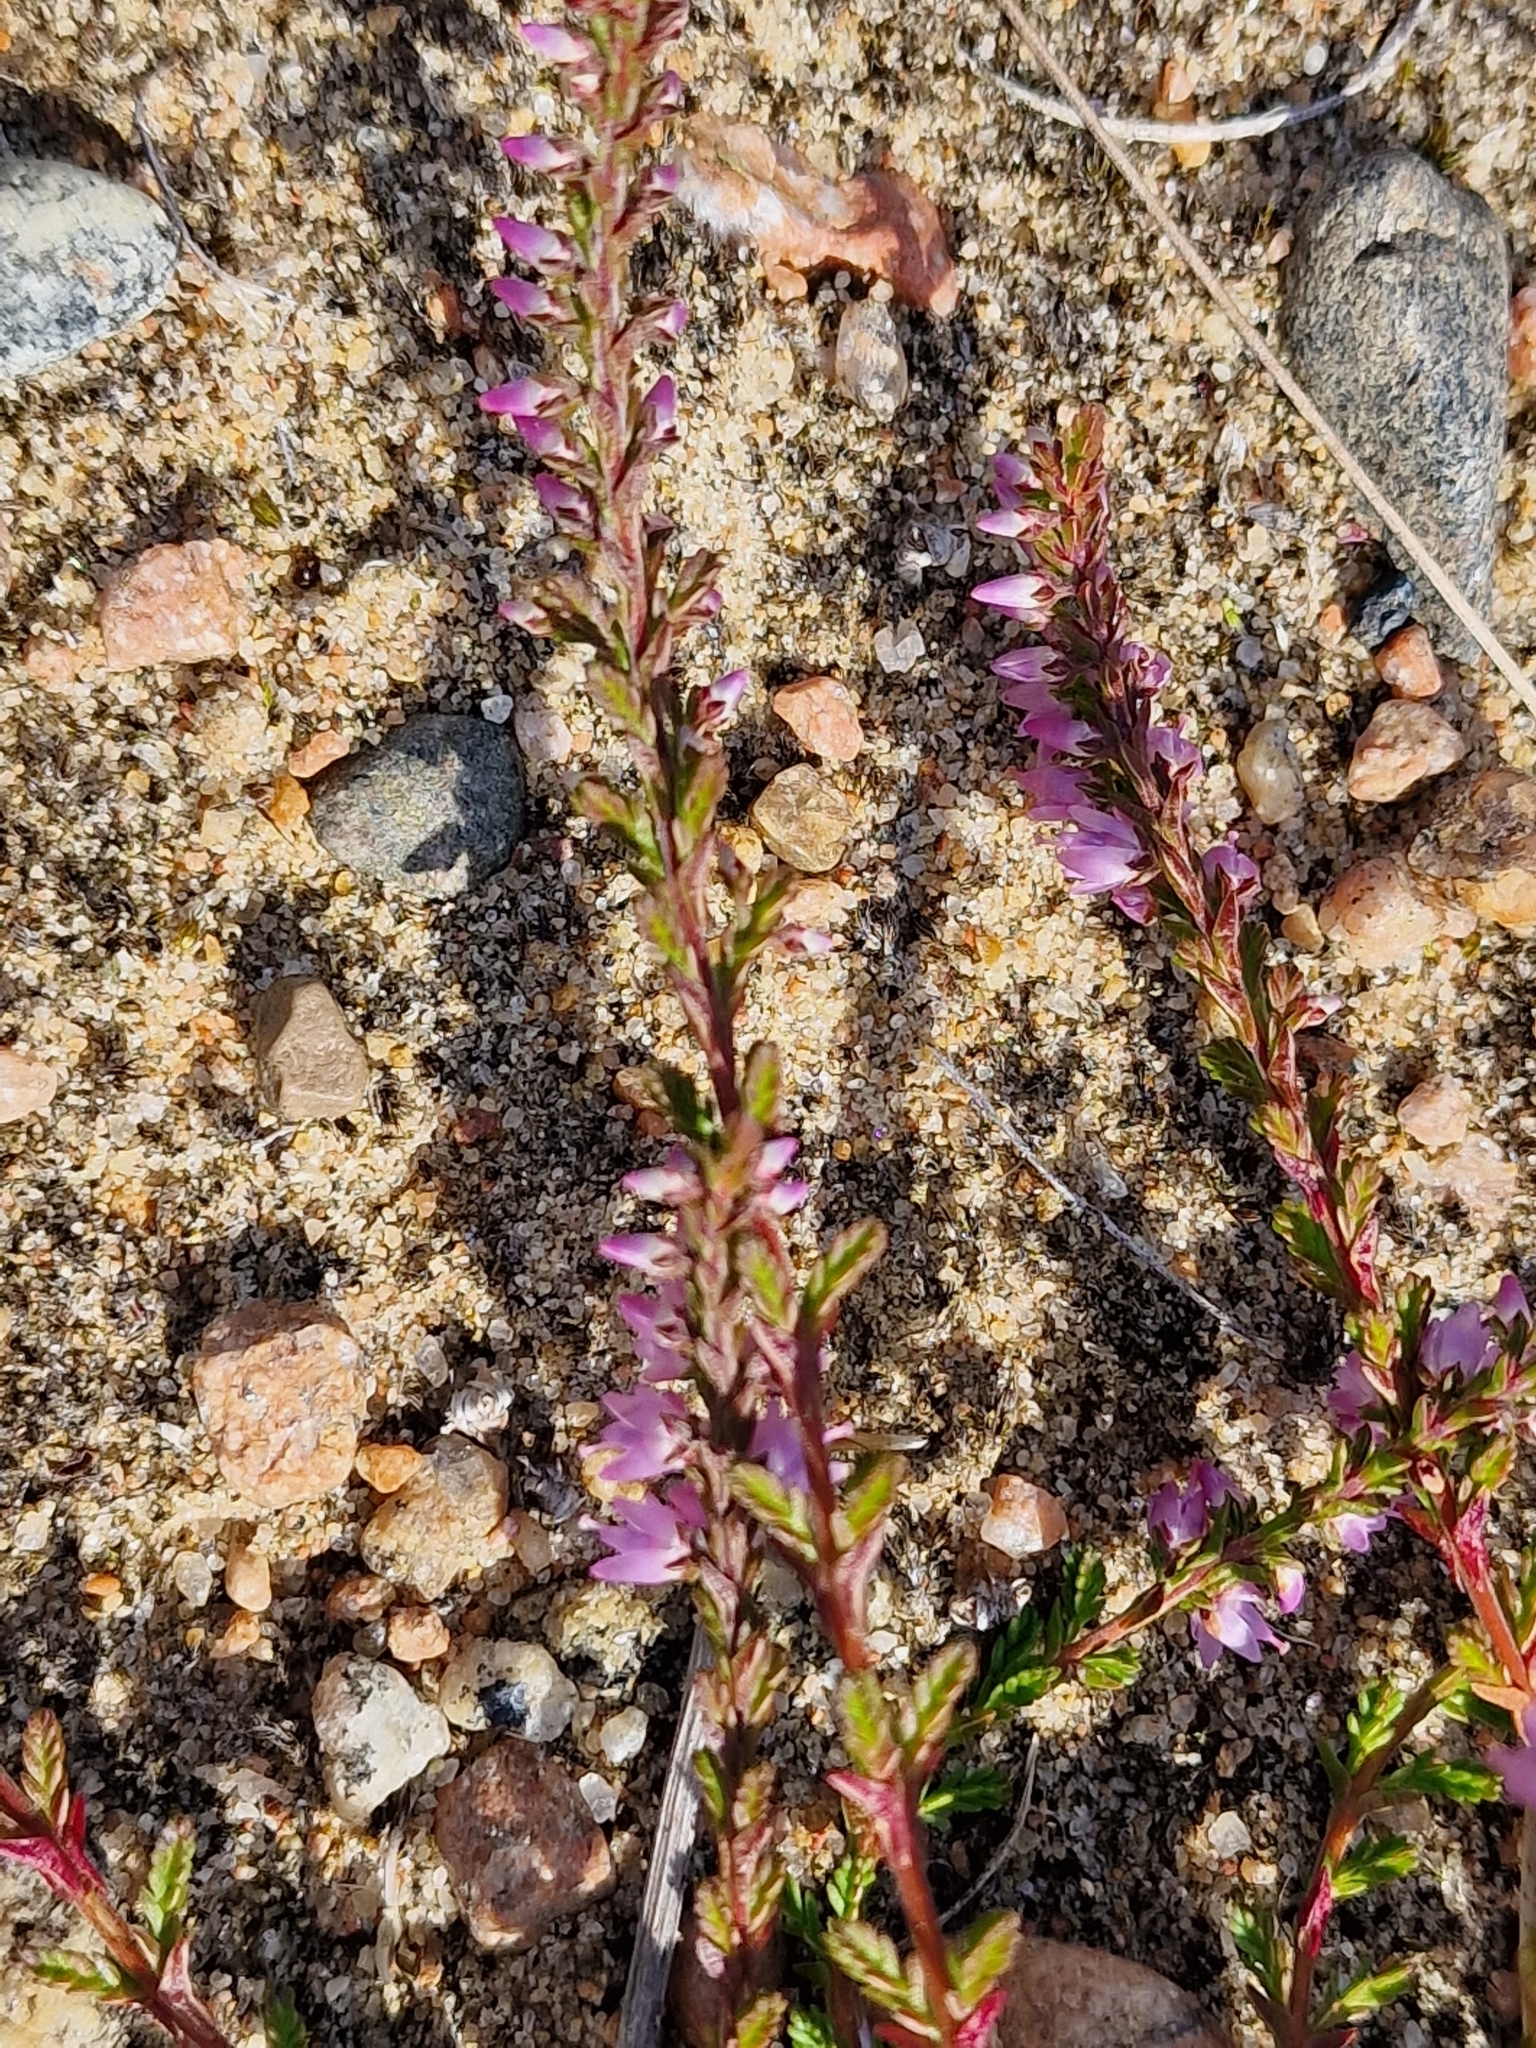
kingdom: Plantae
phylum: Tracheophyta
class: Magnoliopsida
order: Ericales
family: Ericaceae
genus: Calluna
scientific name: Calluna vulgaris
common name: Heather
